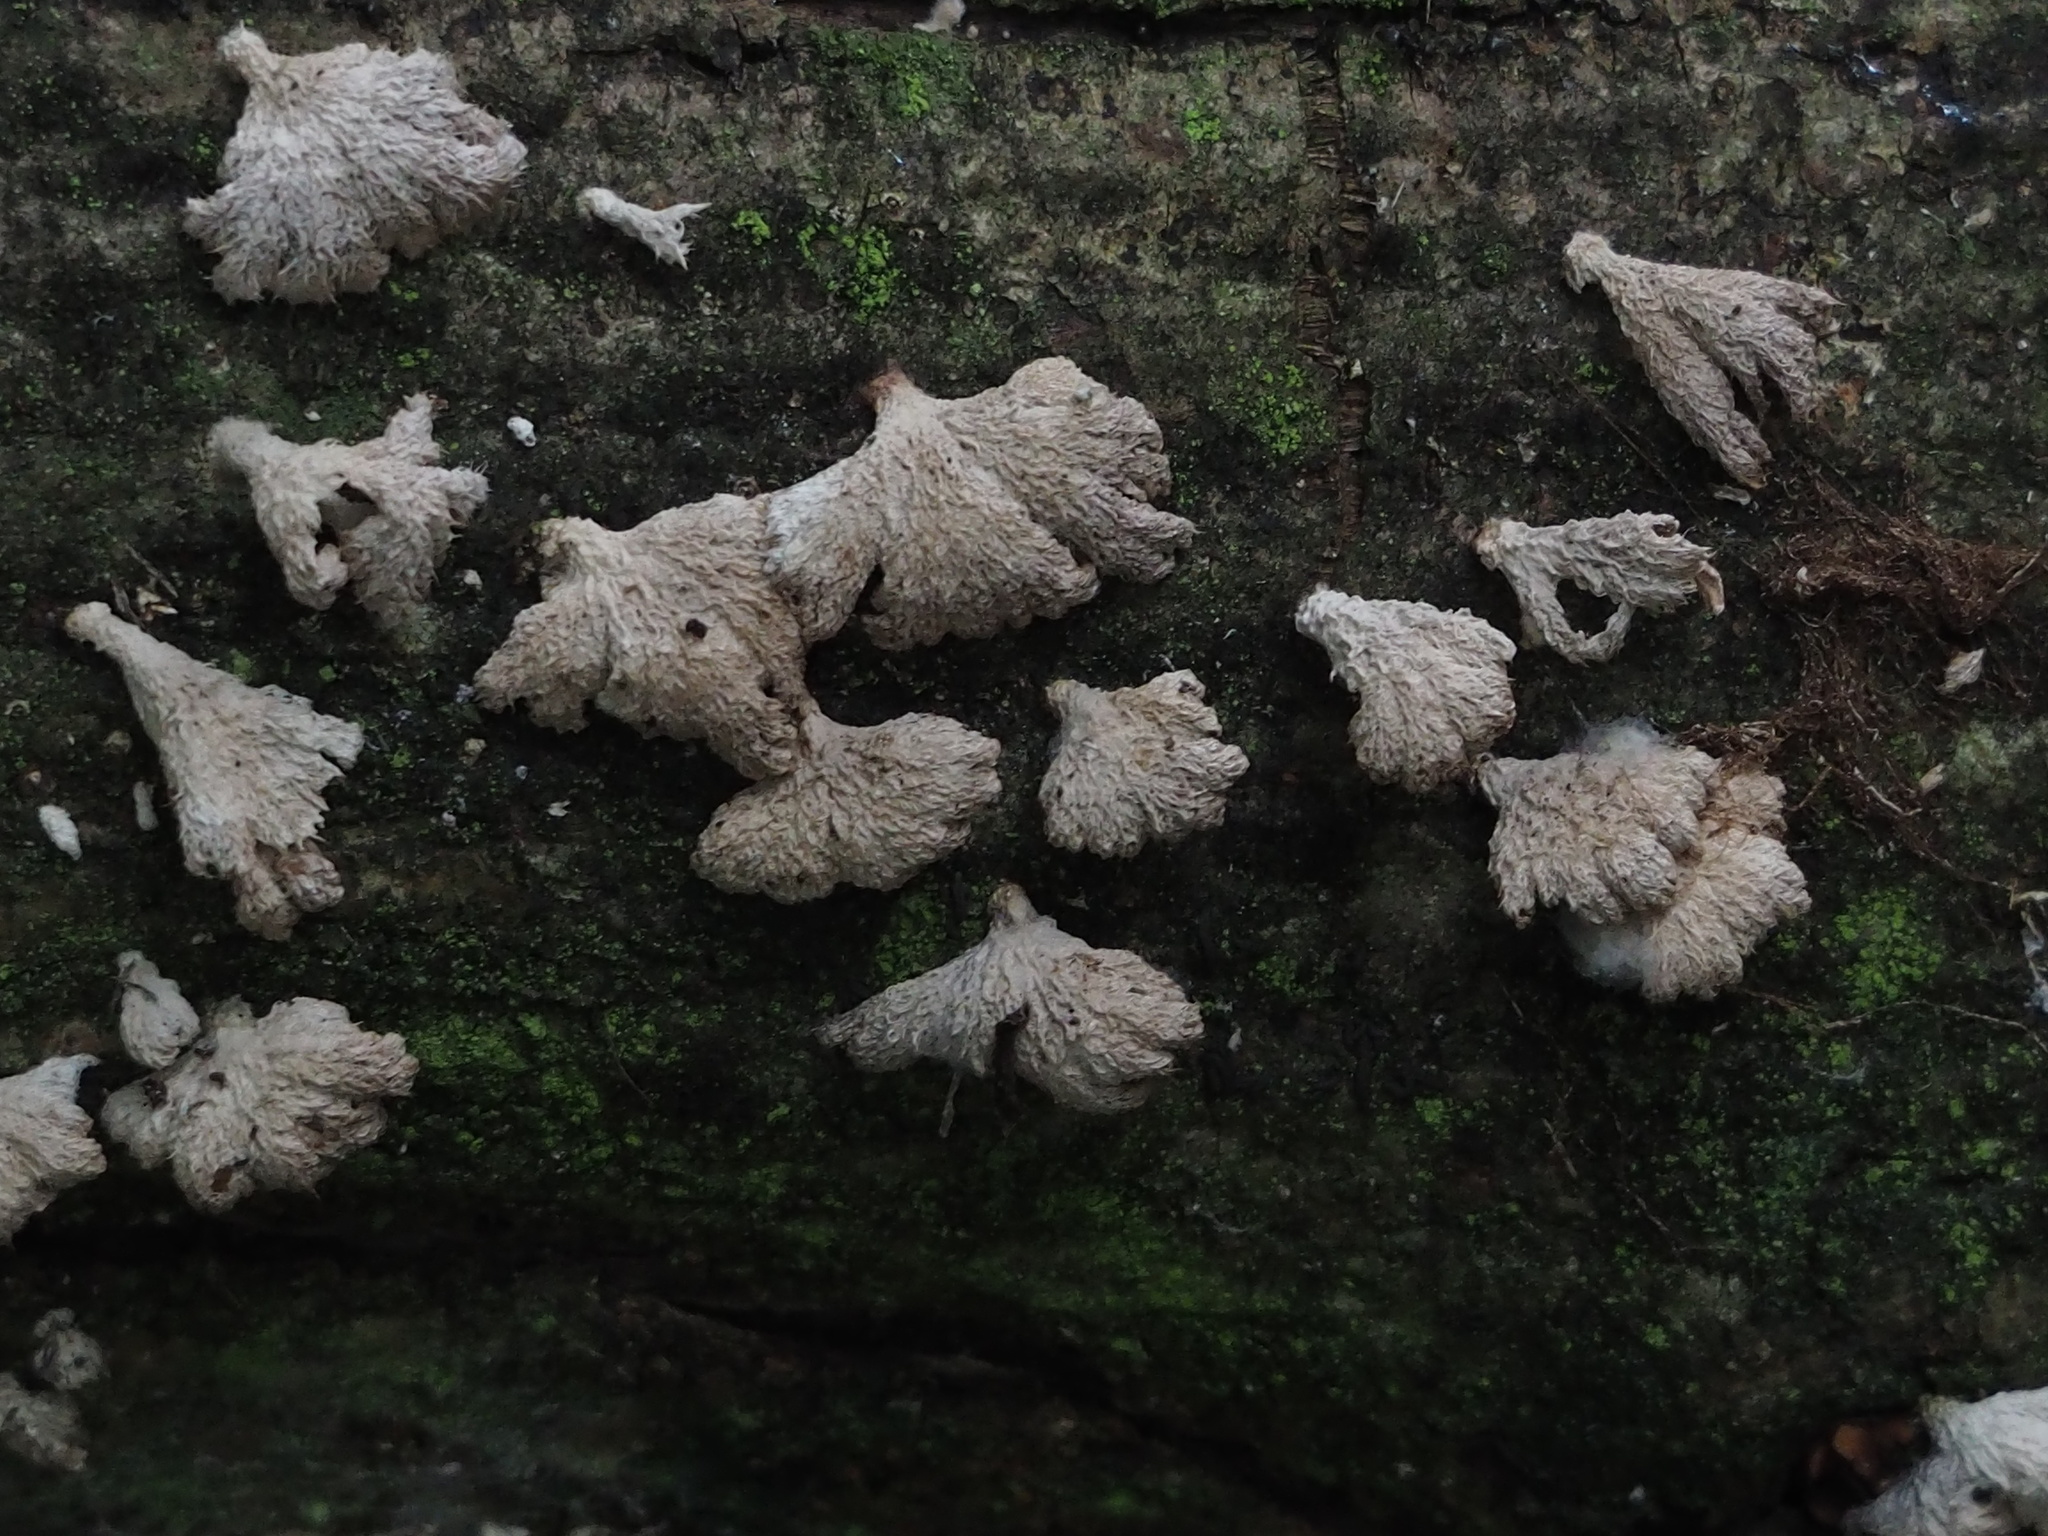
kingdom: Fungi
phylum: Basidiomycota
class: Agaricomycetes
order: Agaricales
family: Schizophyllaceae
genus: Schizophyllum
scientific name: Schizophyllum commune
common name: Common porecrust
